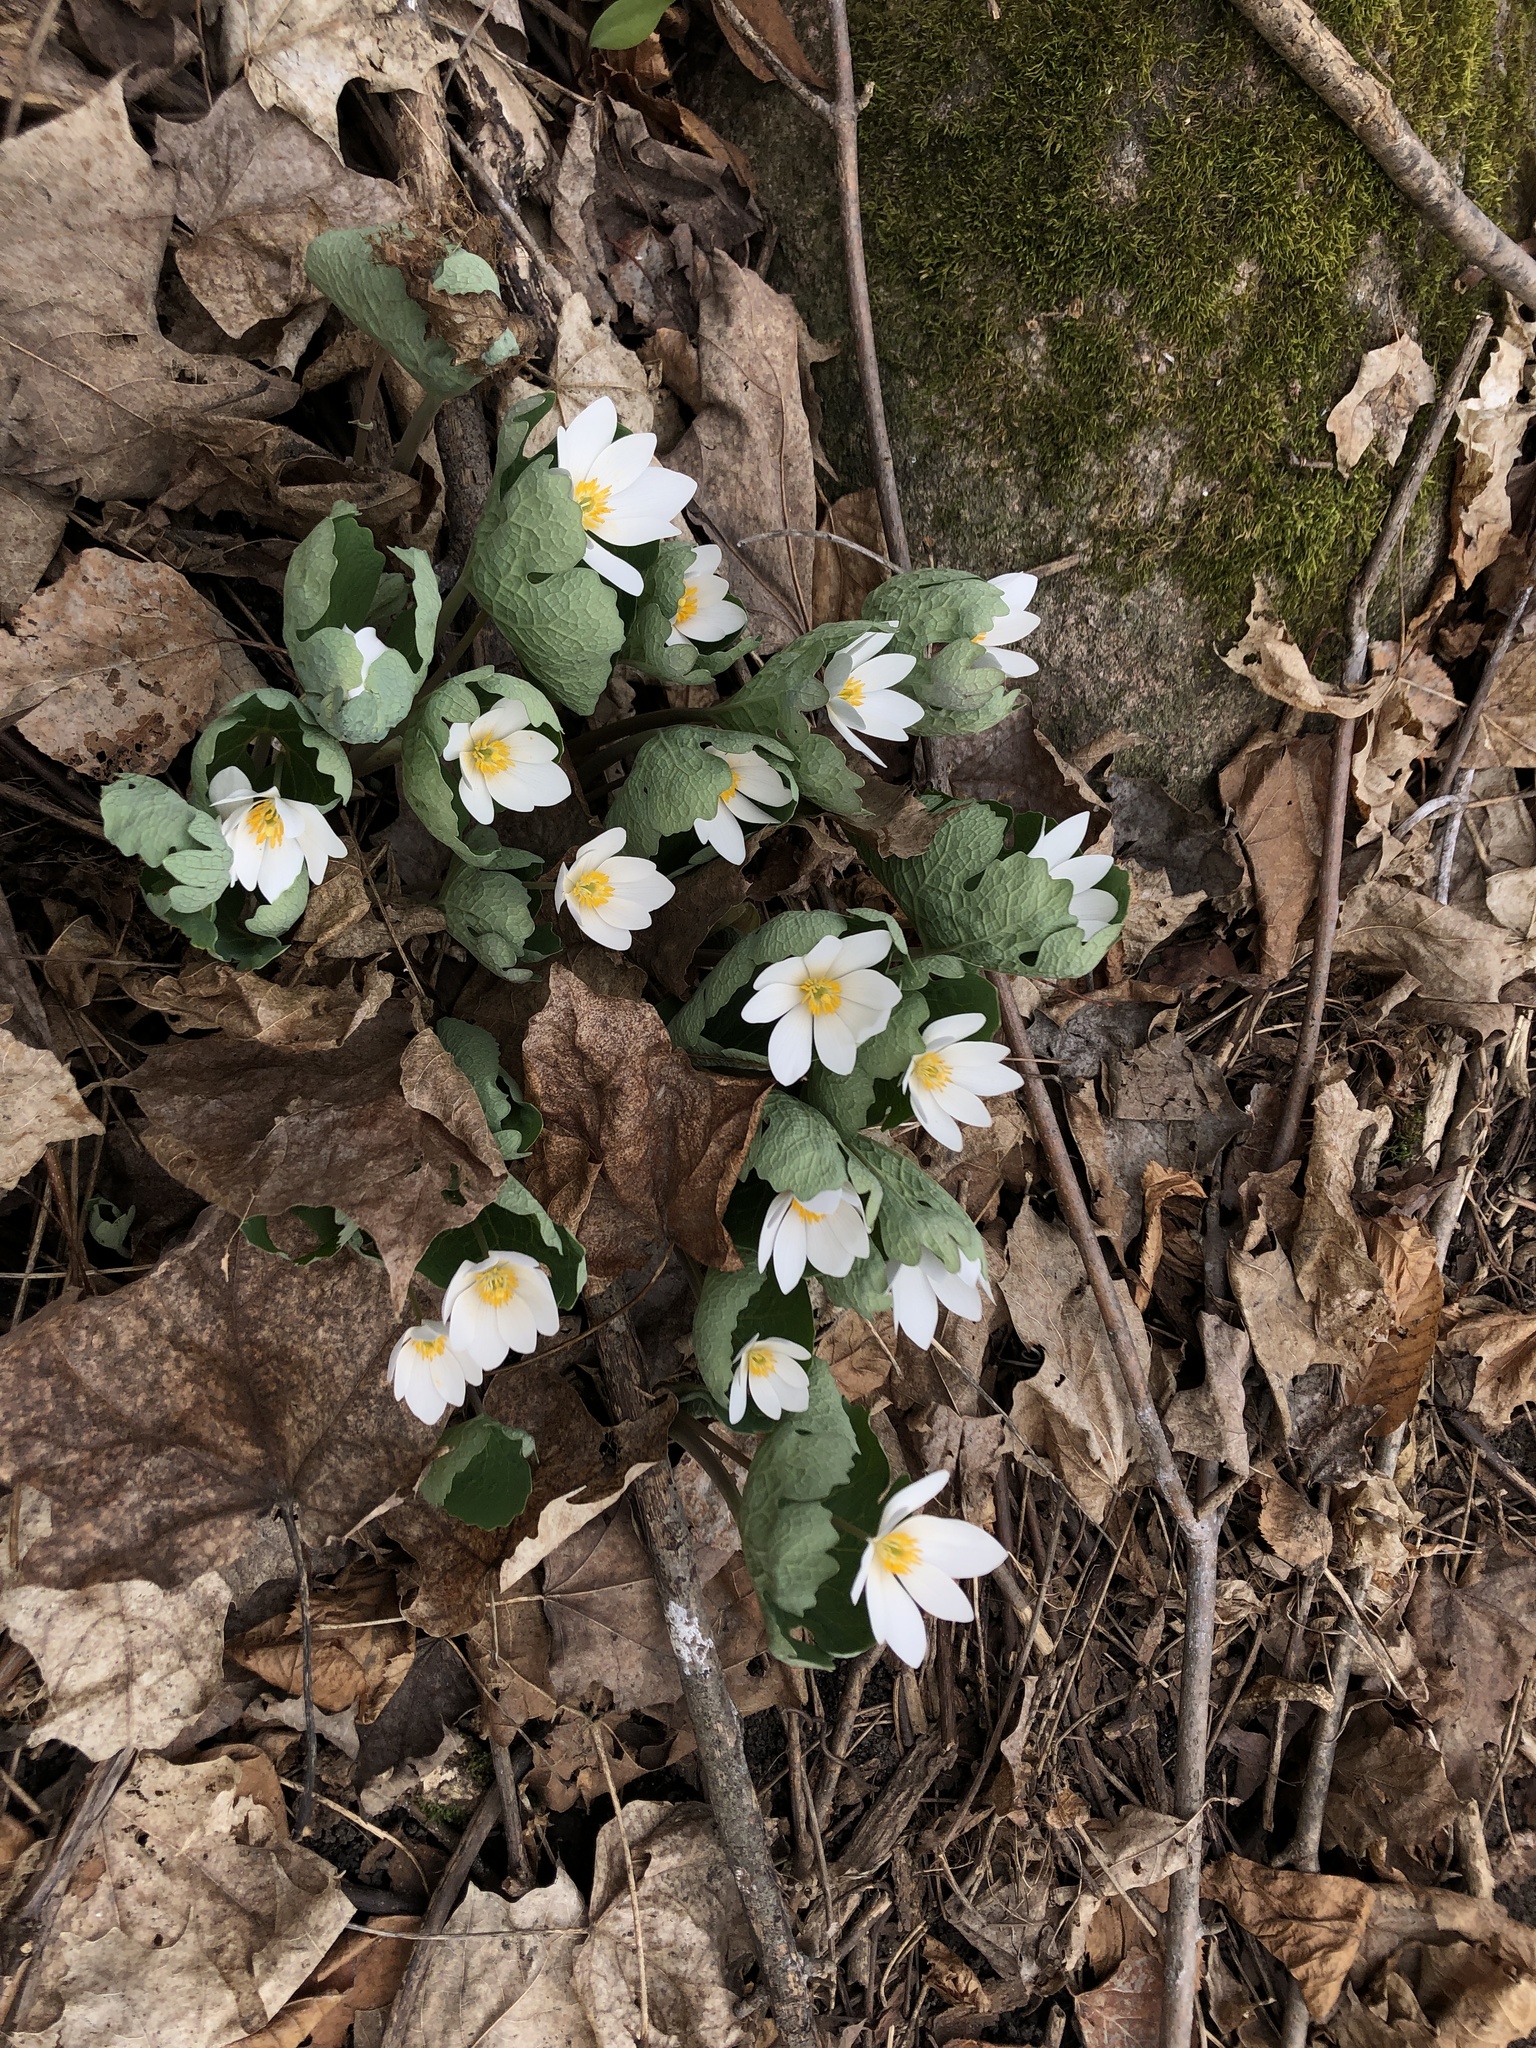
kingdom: Plantae
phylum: Tracheophyta
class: Magnoliopsida
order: Ranunculales
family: Papaveraceae
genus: Sanguinaria
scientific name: Sanguinaria canadensis
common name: Bloodroot
